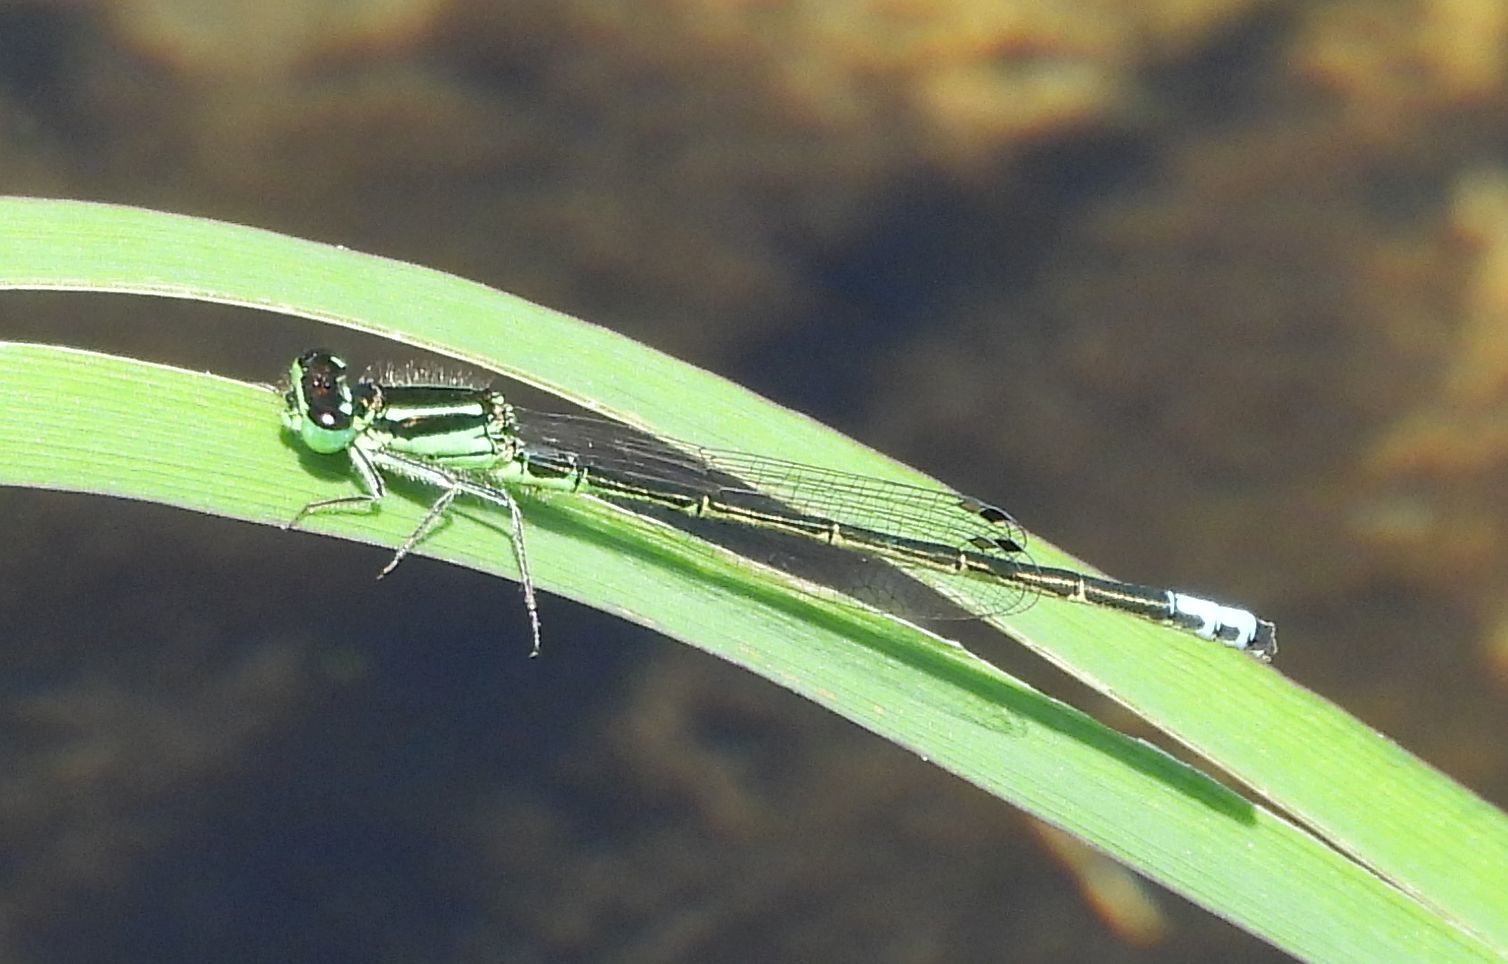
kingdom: Animalia
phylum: Arthropoda
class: Insecta
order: Odonata
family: Coenagrionidae
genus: Ischnura
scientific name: Ischnura verticalis
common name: Eastern forktail
